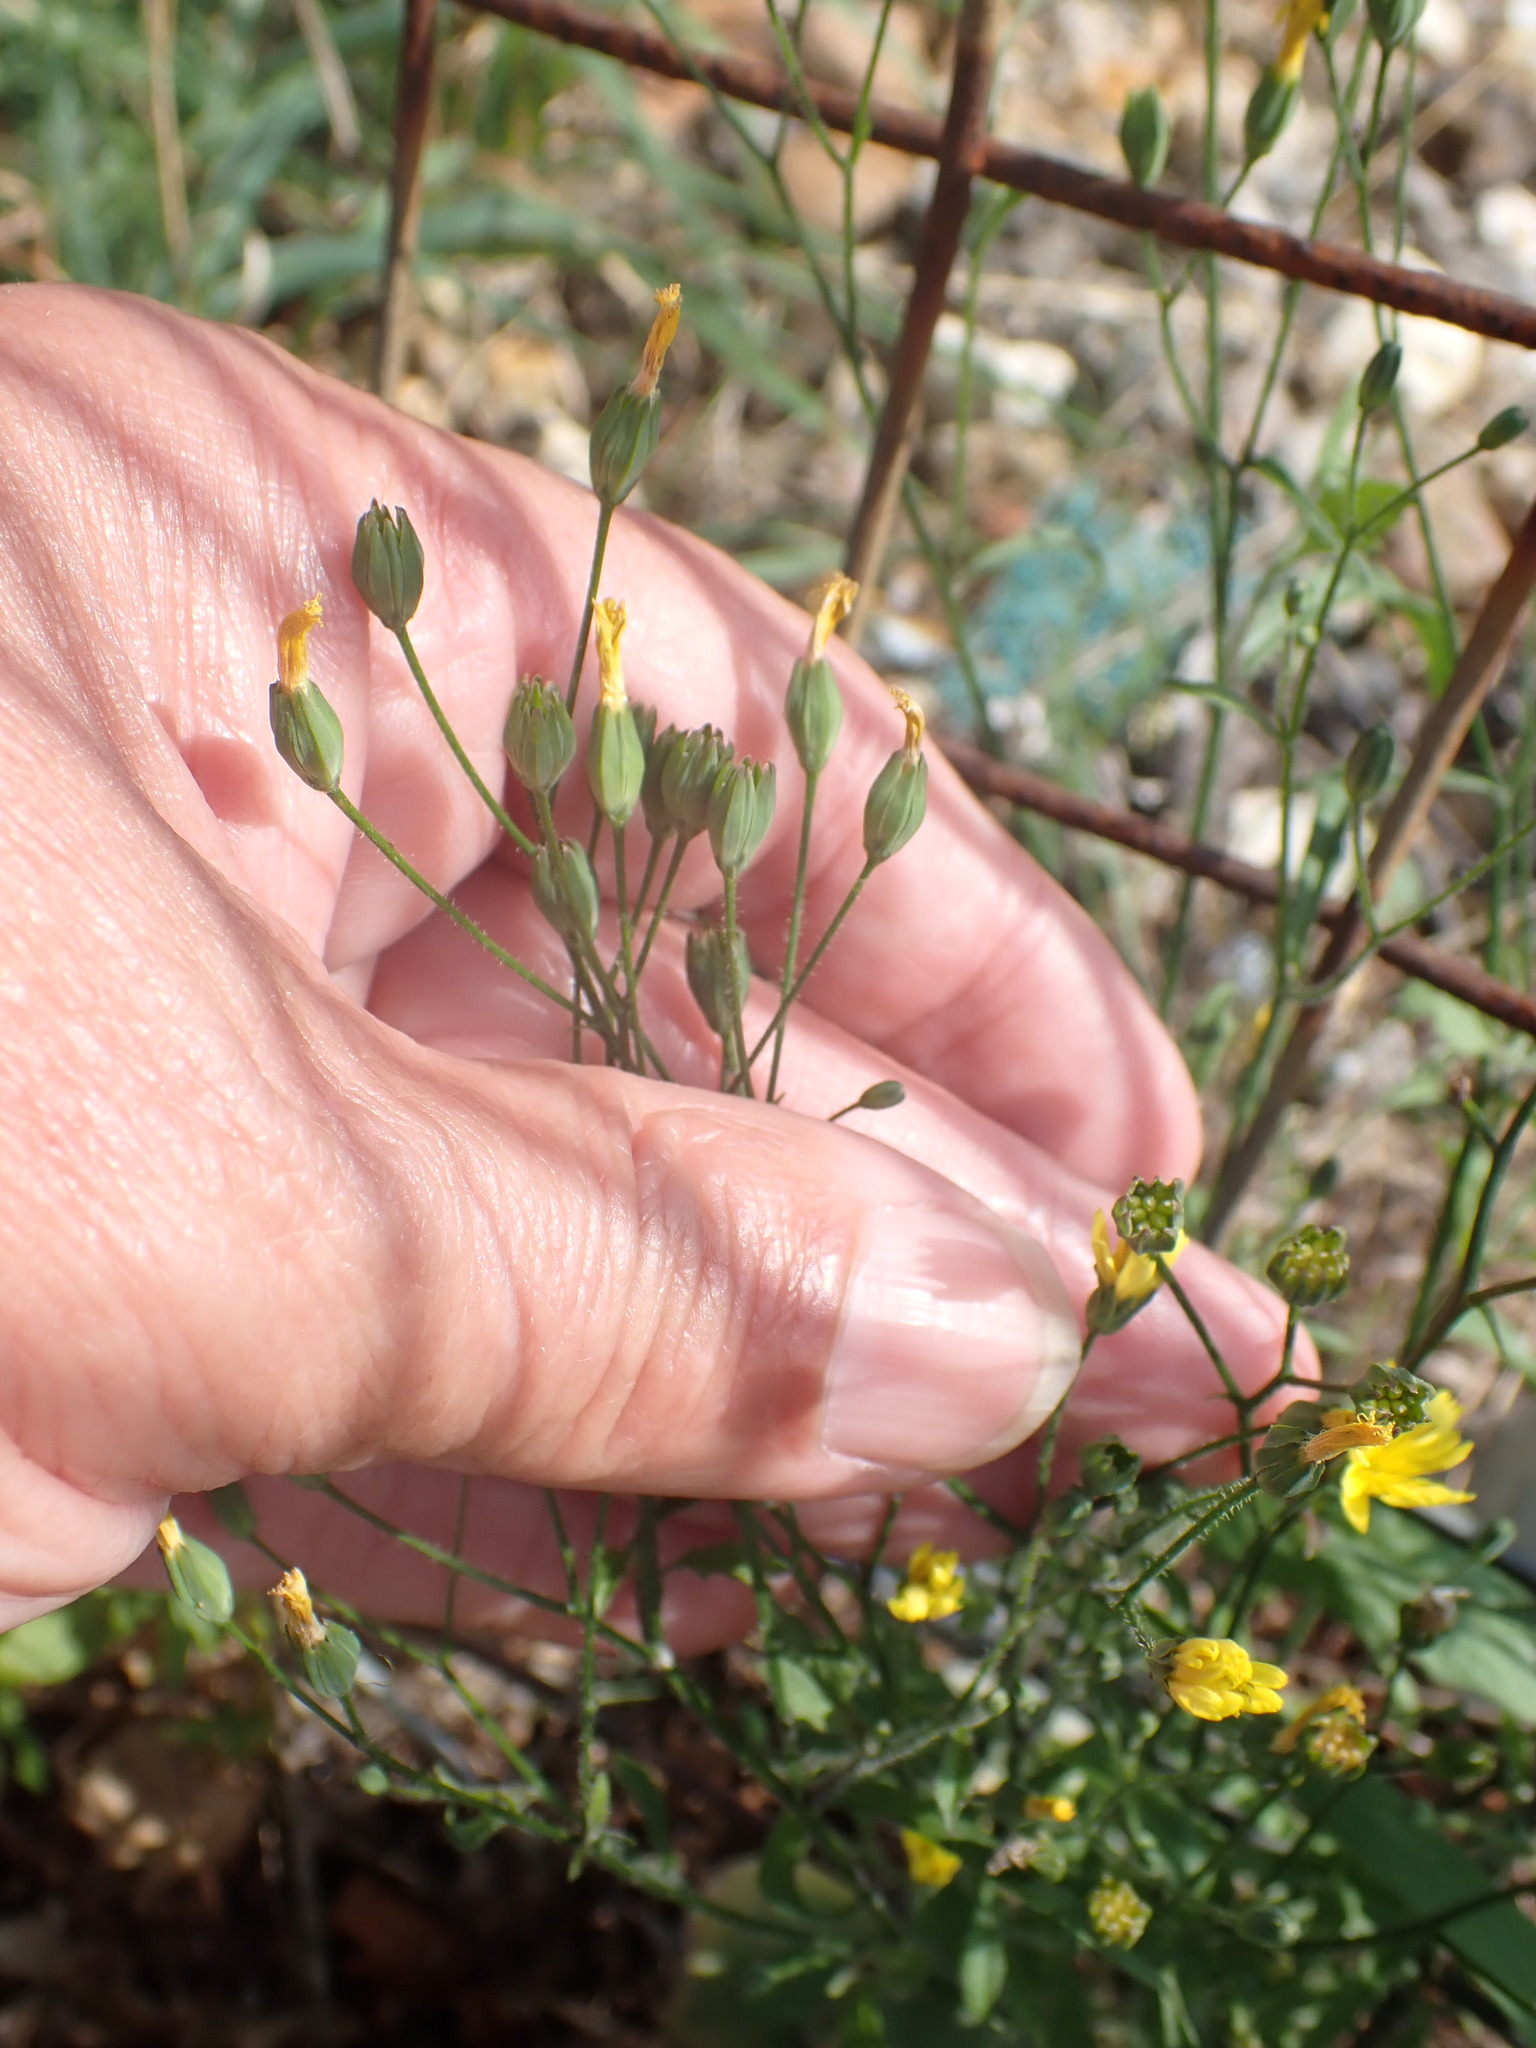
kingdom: Plantae
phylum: Tracheophyta
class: Magnoliopsida
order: Asterales
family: Asteraceae
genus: Lapsana
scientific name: Lapsana communis
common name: Nipplewort
